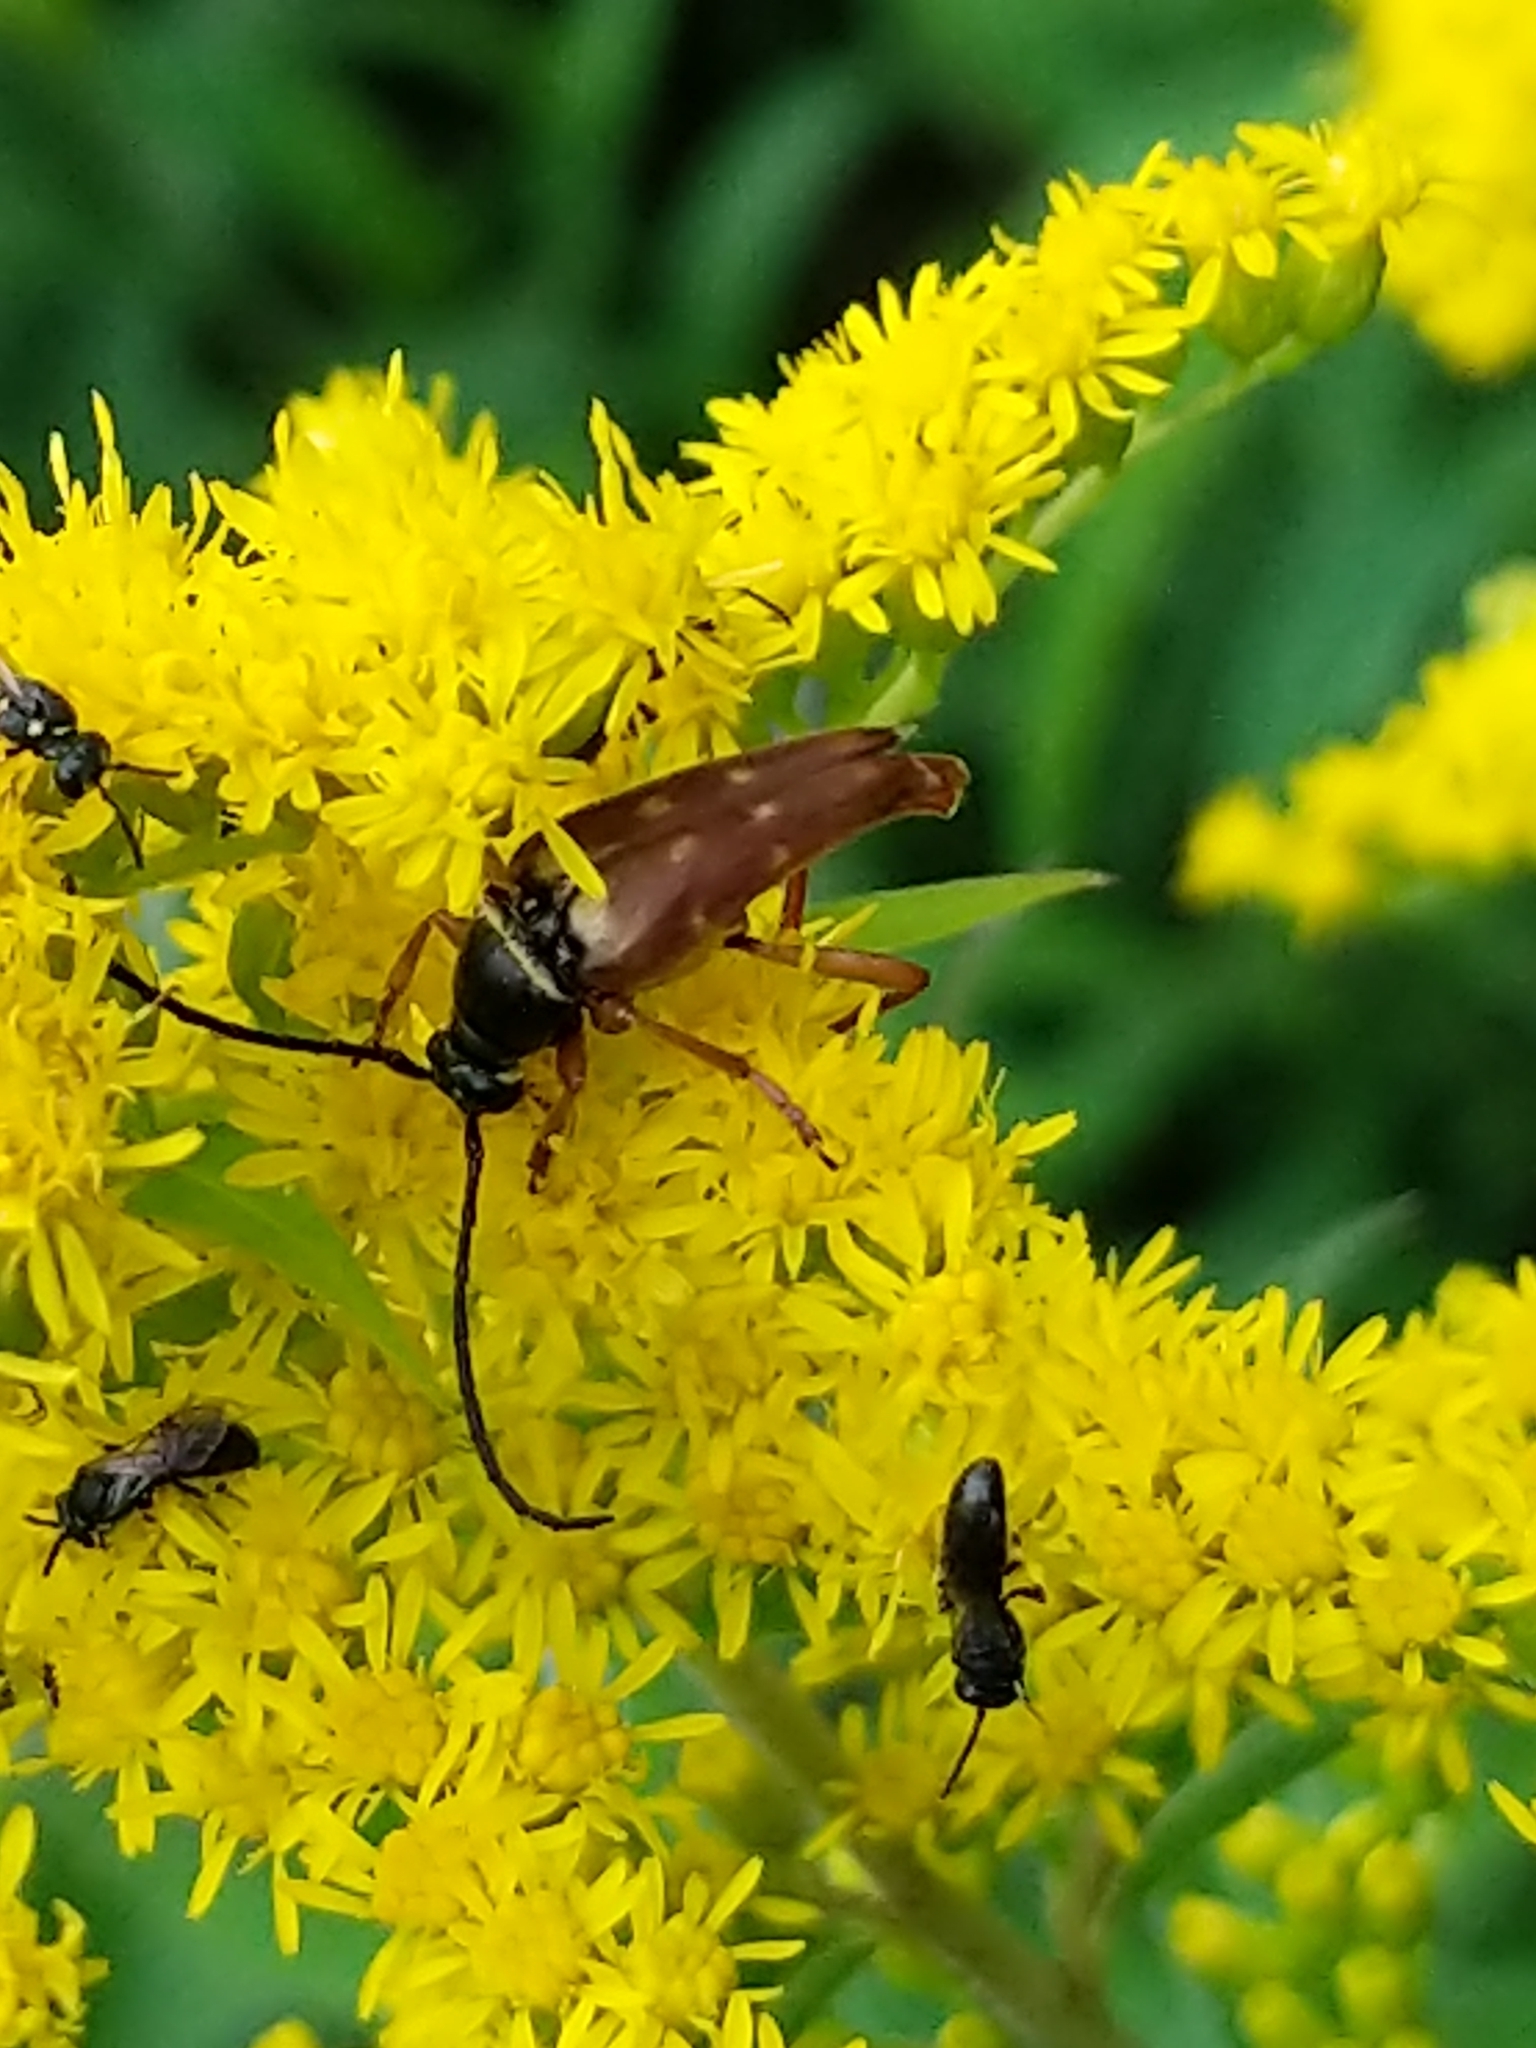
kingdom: Animalia
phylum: Arthropoda
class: Insecta
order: Coleoptera
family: Cerambycidae
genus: Typocerus
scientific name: Typocerus velutinus
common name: Banded longhorn beetle
